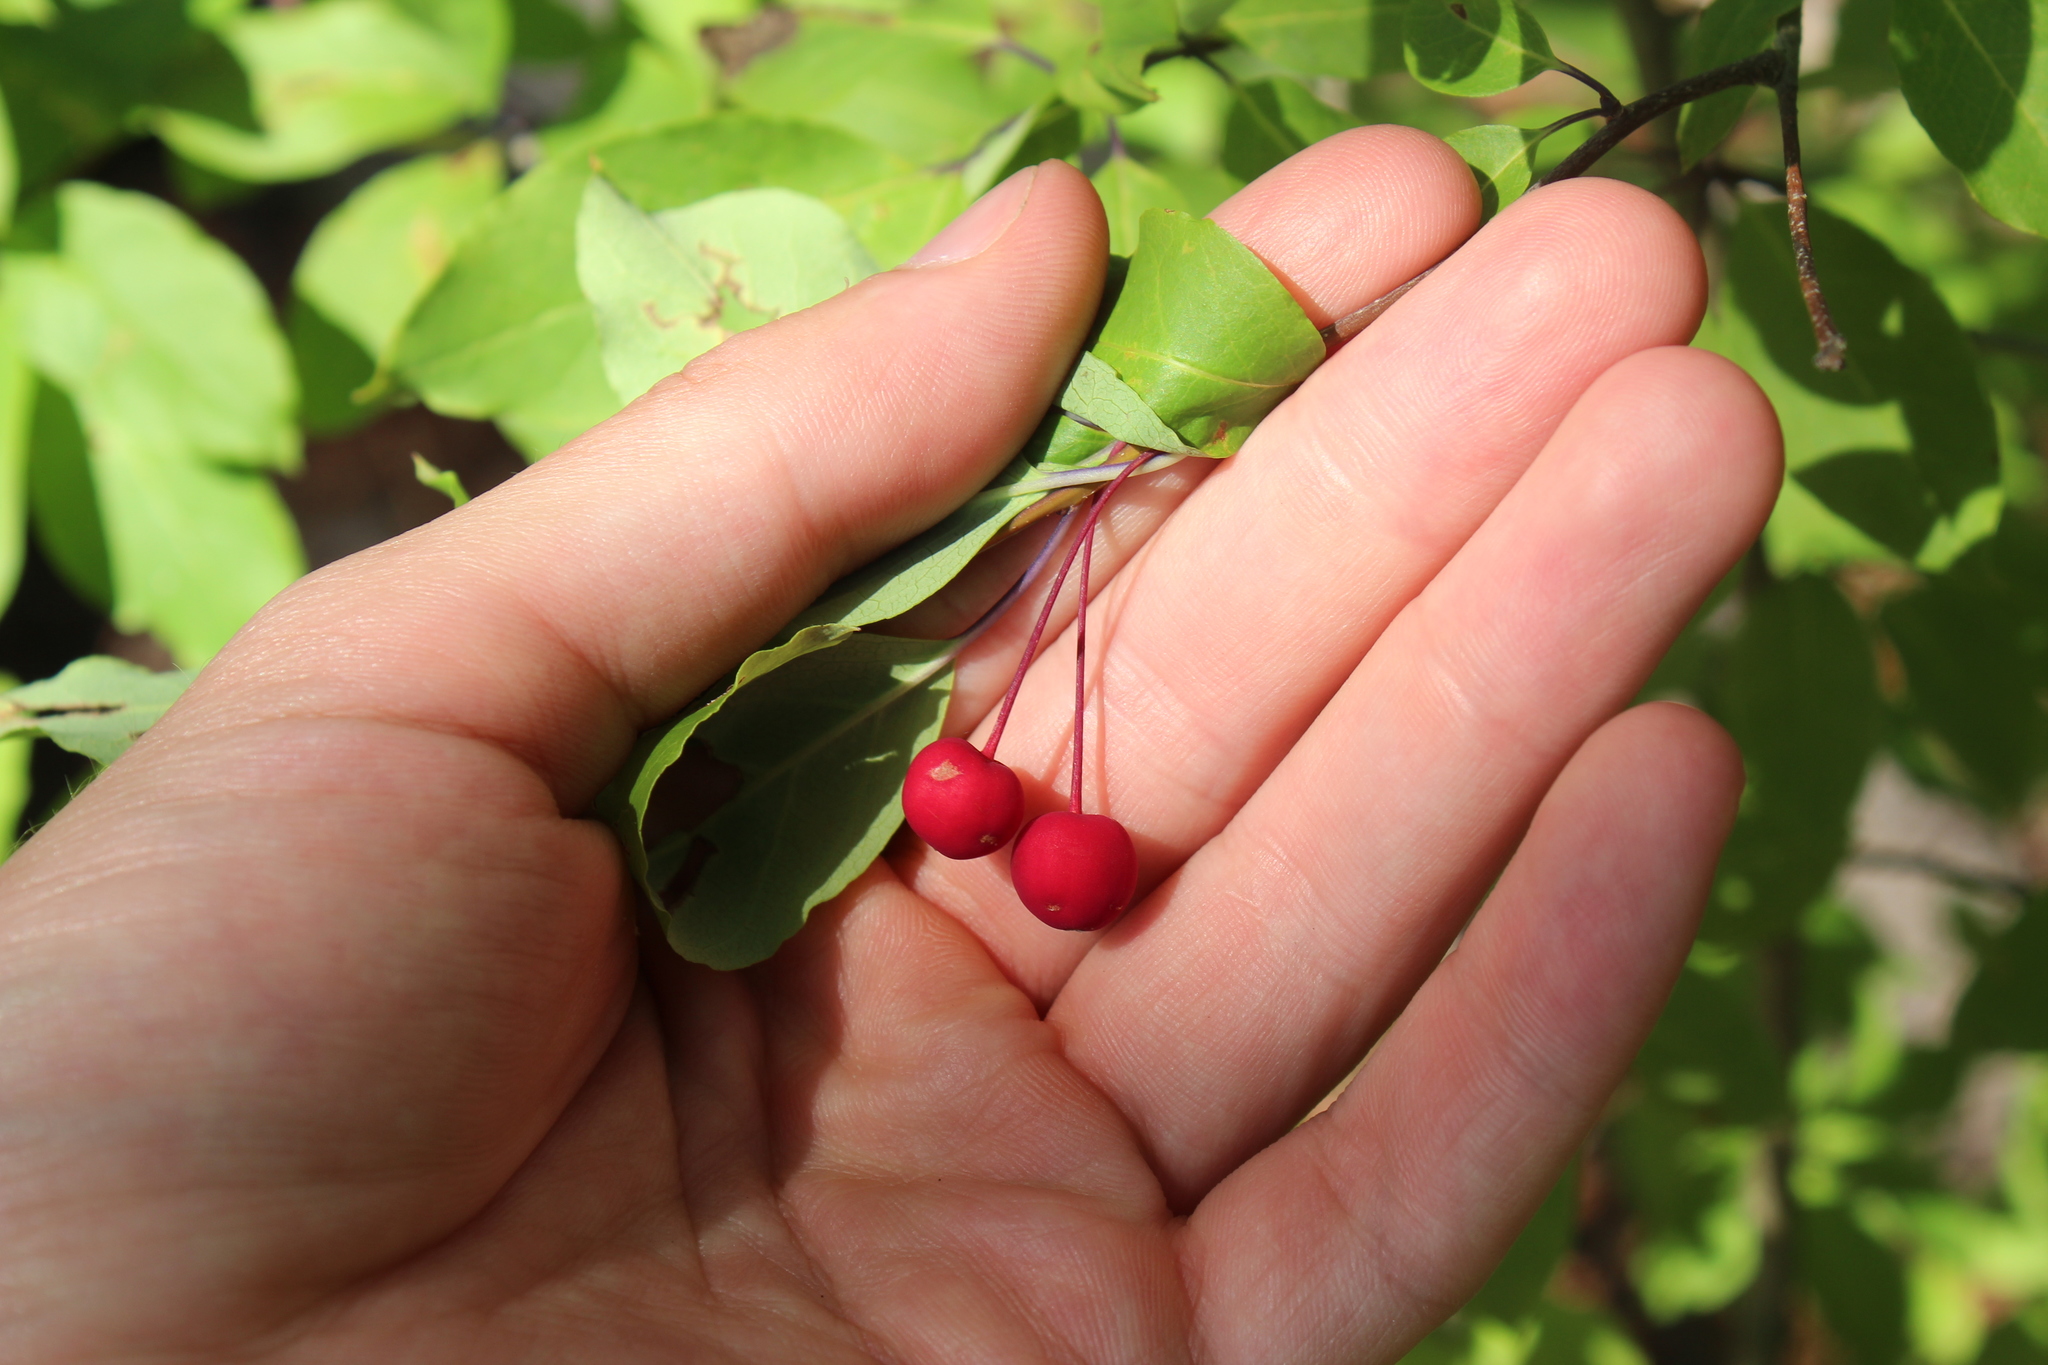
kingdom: Plantae
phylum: Tracheophyta
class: Magnoliopsida
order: Aquifoliales
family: Aquifoliaceae
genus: Ilex
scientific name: Ilex mucronata
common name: Catberry
